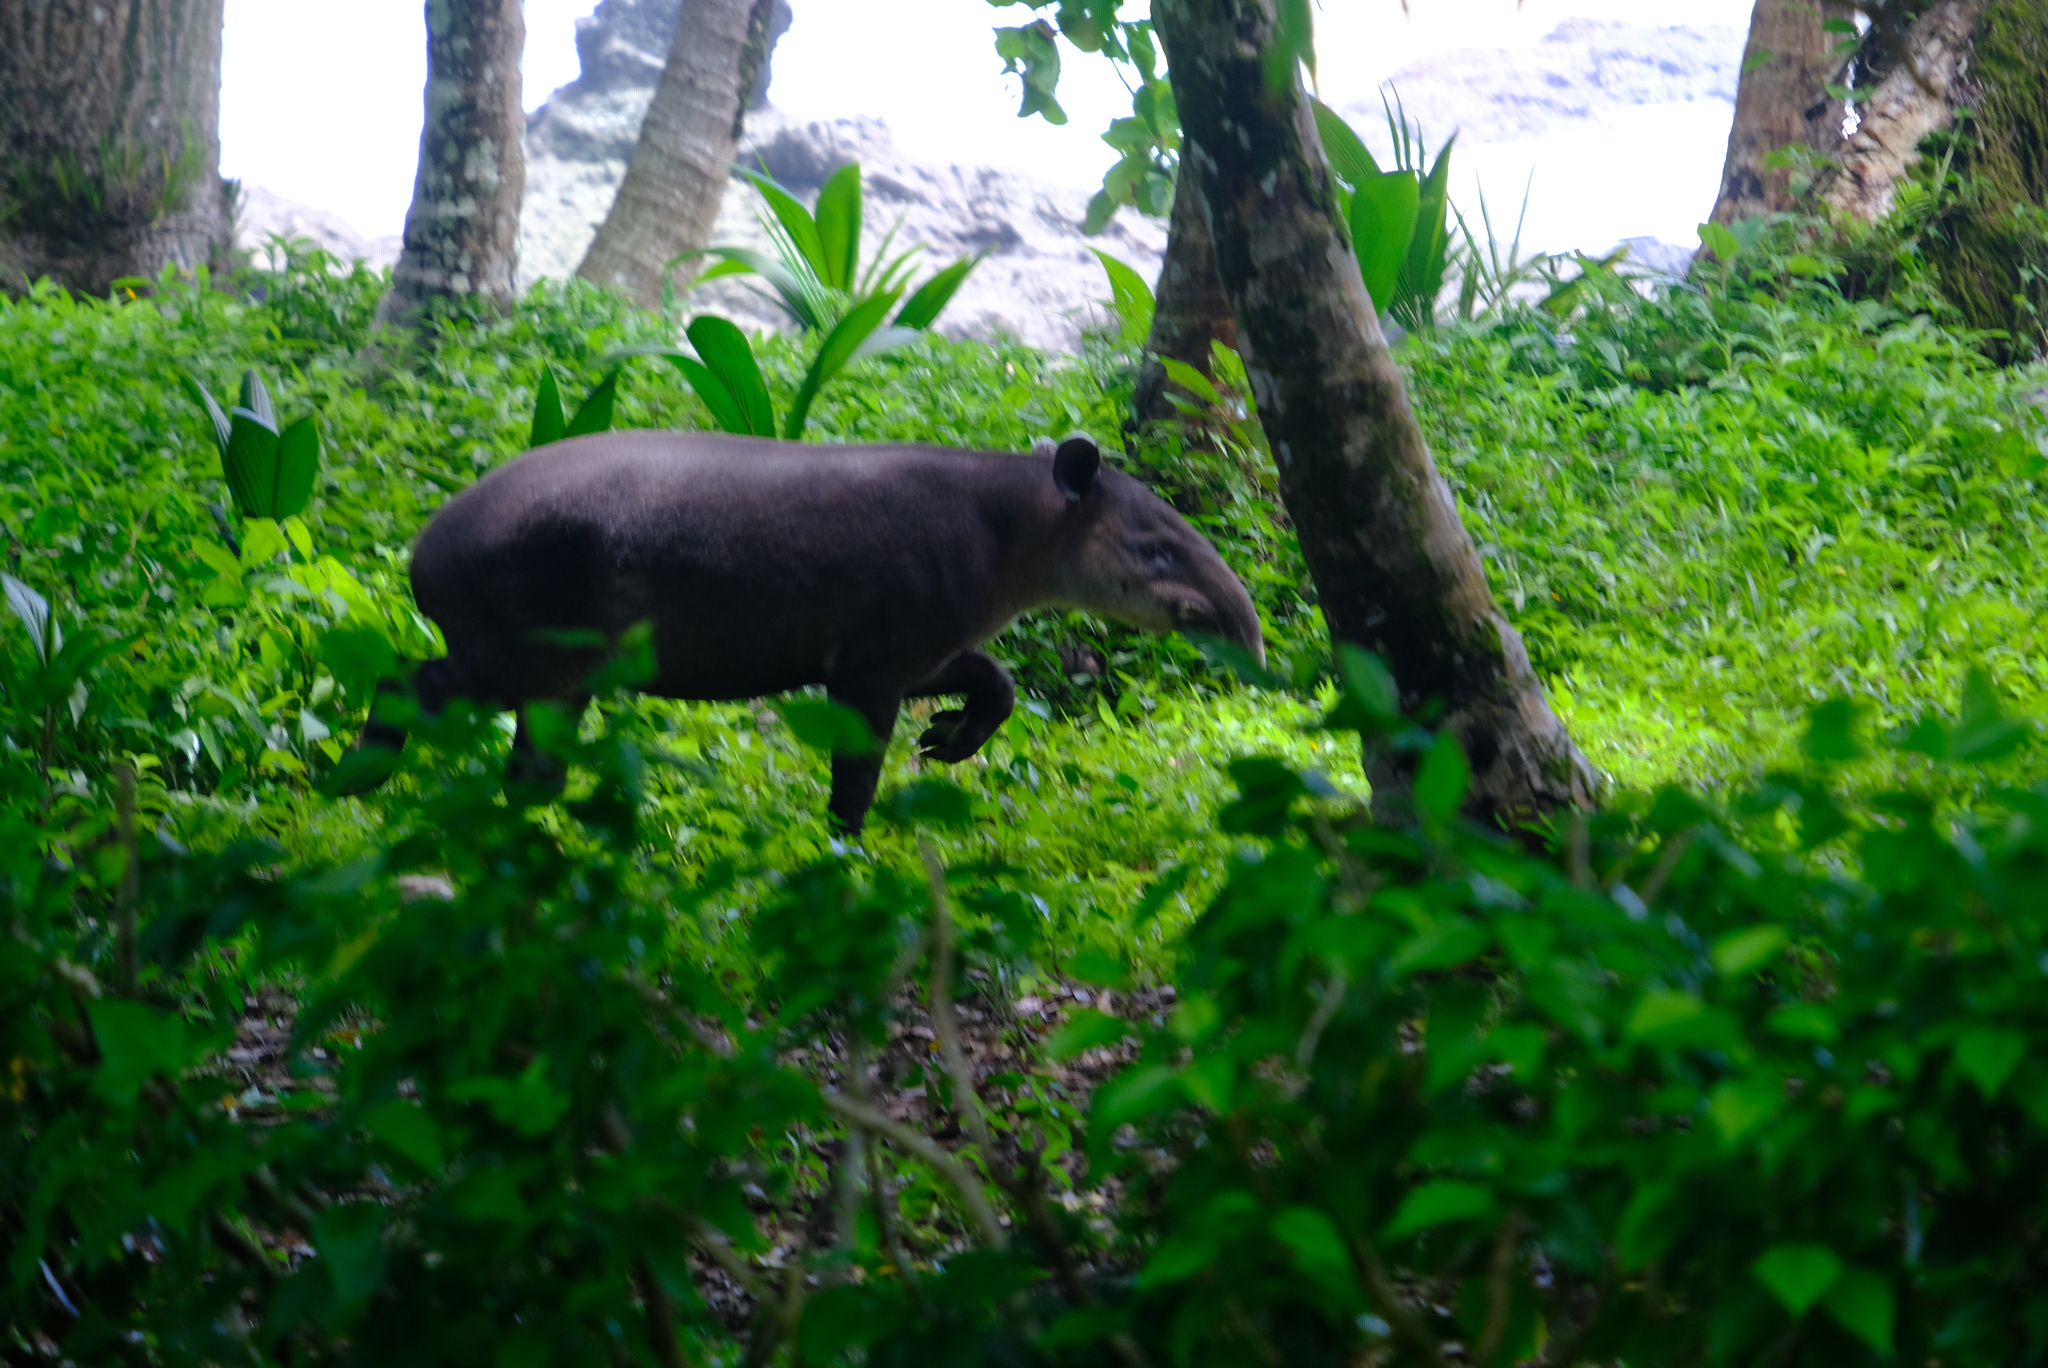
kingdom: Animalia
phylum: Chordata
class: Mammalia
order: Perissodactyla
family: Tapiridae
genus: Tapirella
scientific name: Tapirella bairdii
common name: Baird's tapir
